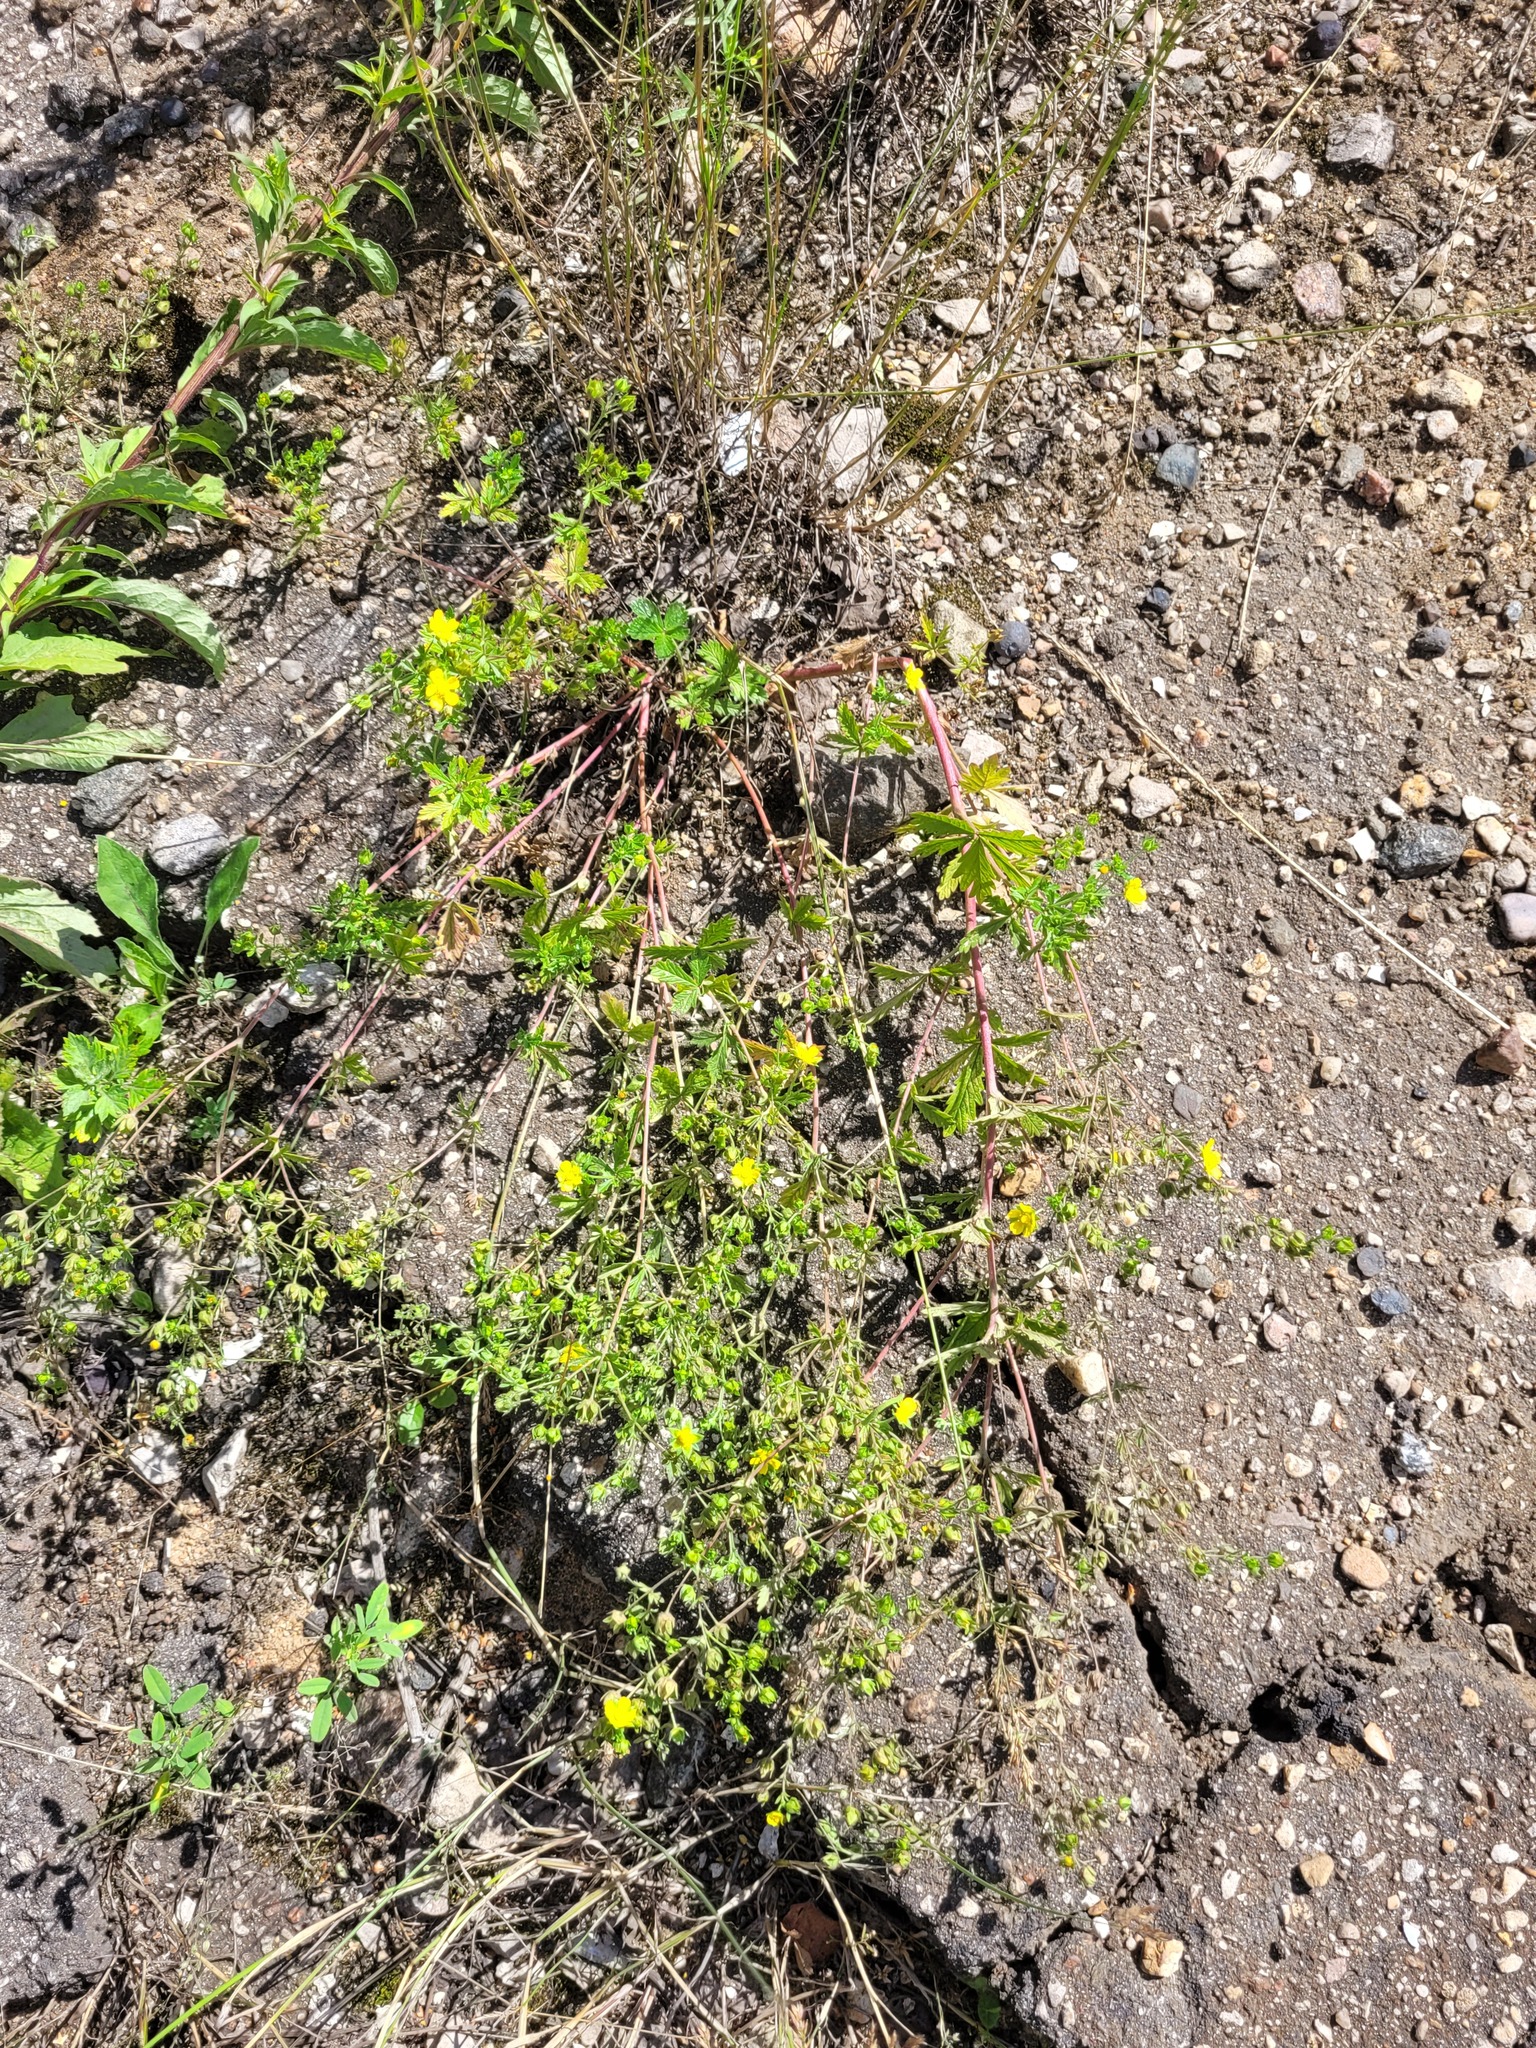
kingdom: Plantae
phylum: Tracheophyta
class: Magnoliopsida
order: Rosales
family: Rosaceae
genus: Potentilla
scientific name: Potentilla intermedia
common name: Downy cinquefoil
